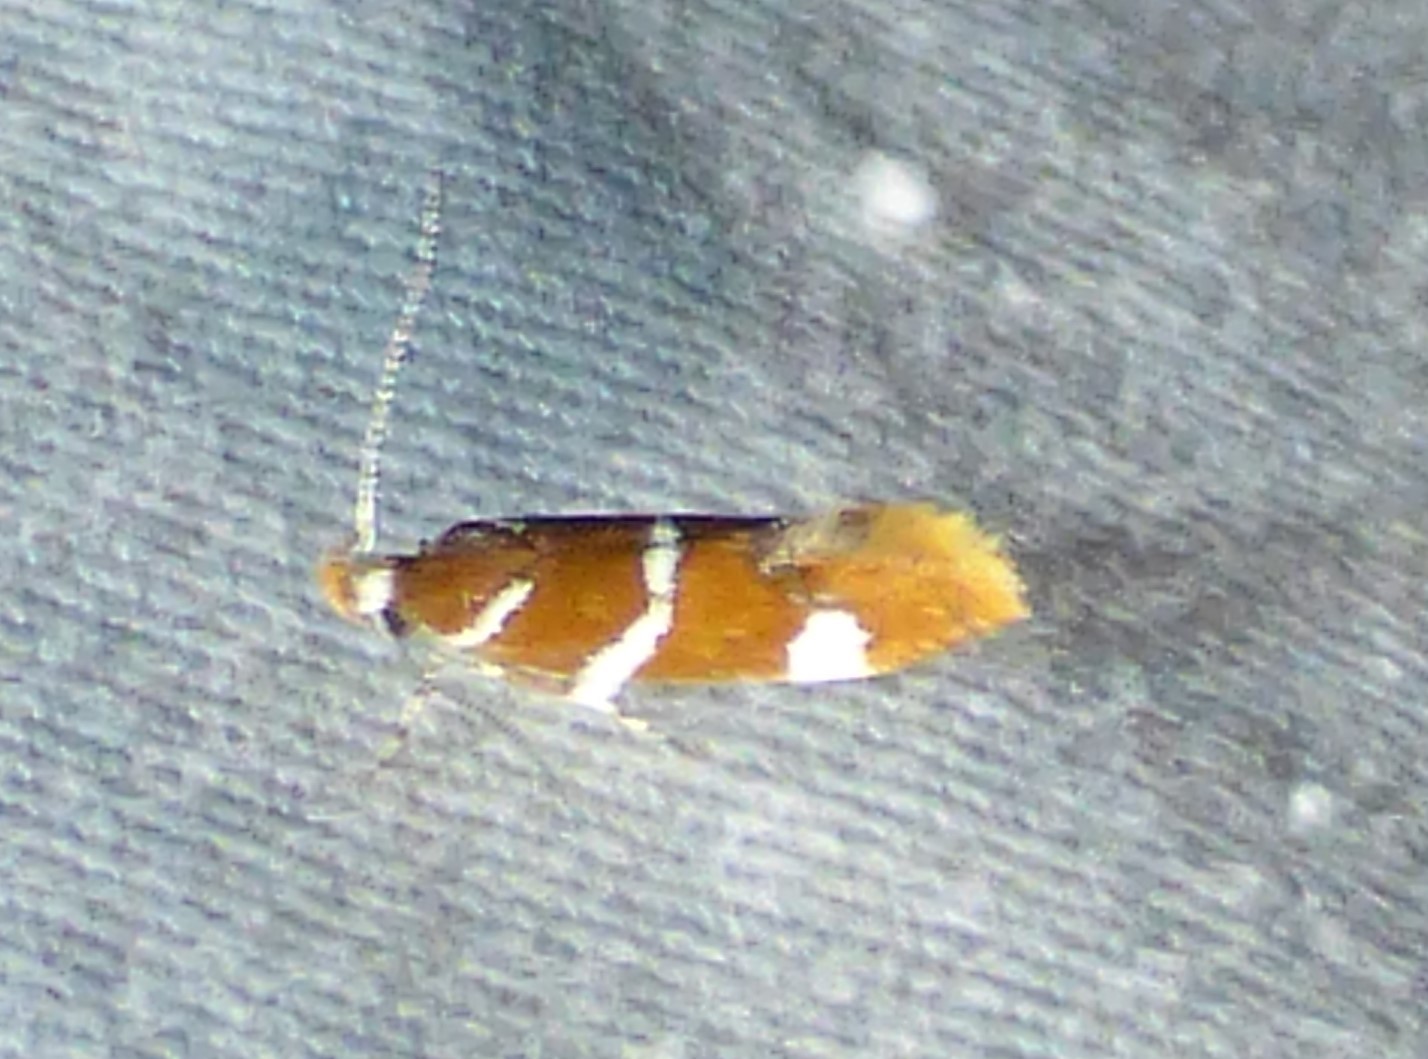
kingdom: Animalia
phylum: Arthropoda
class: Insecta
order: Lepidoptera
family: Oecophoridae
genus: Promalactis
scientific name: Promalactis suzukiella
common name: Moth
